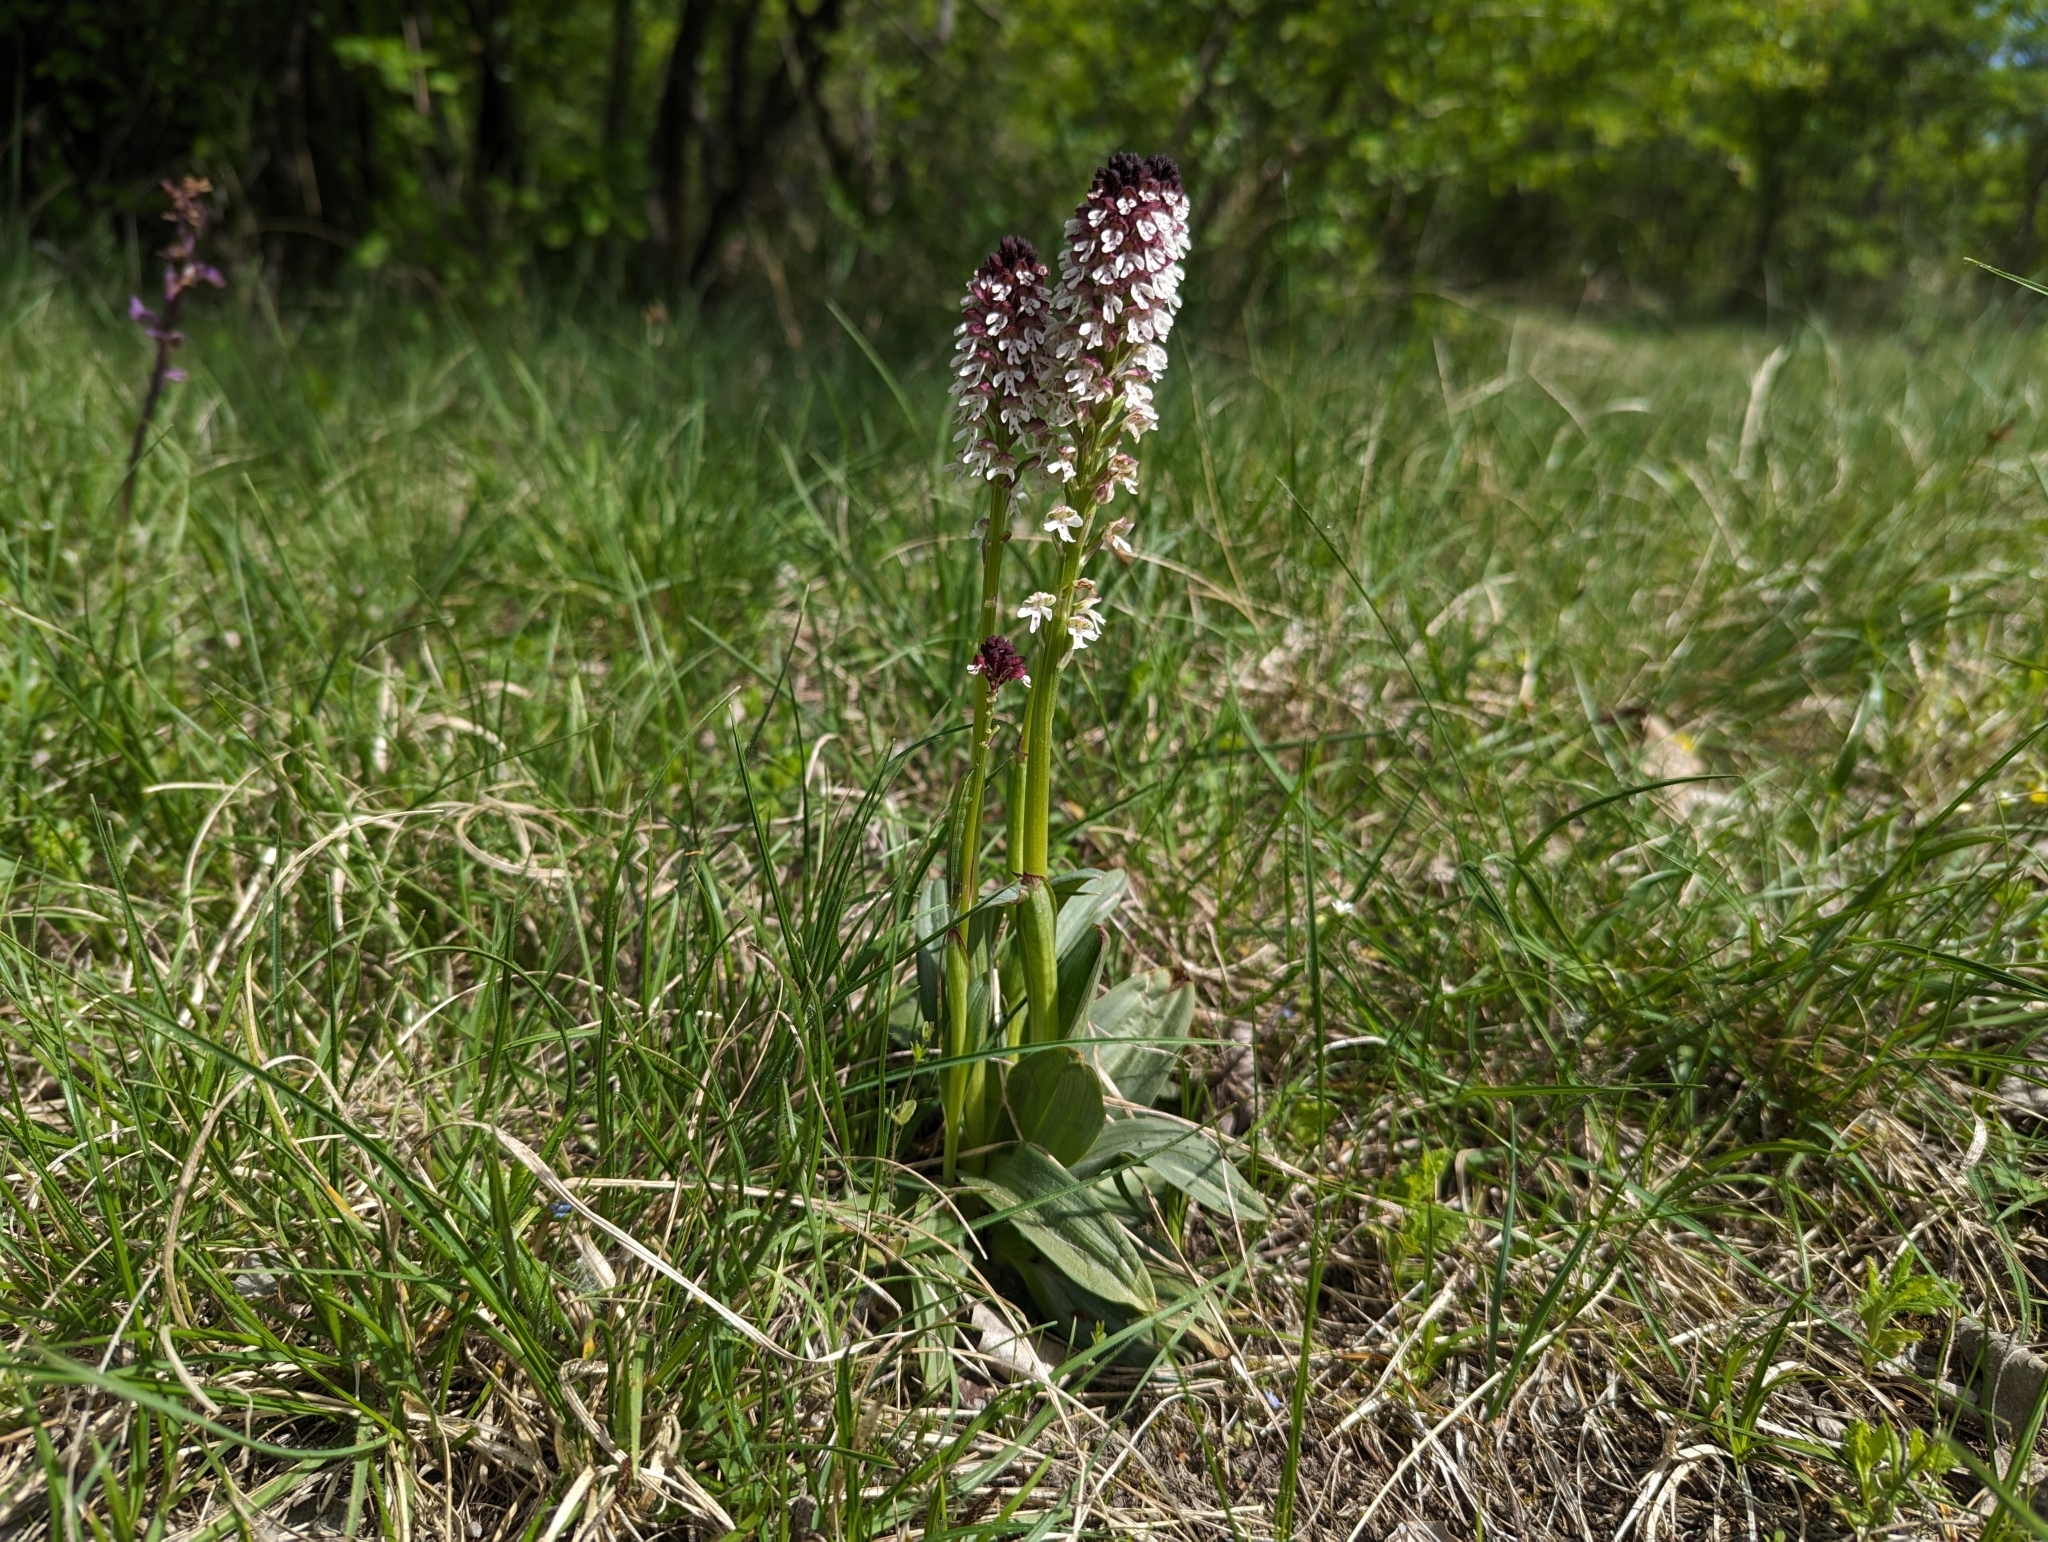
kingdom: Plantae
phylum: Tracheophyta
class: Liliopsida
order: Asparagales
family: Orchidaceae
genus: Neotinea
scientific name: Neotinea ustulata
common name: Burnt orchid
